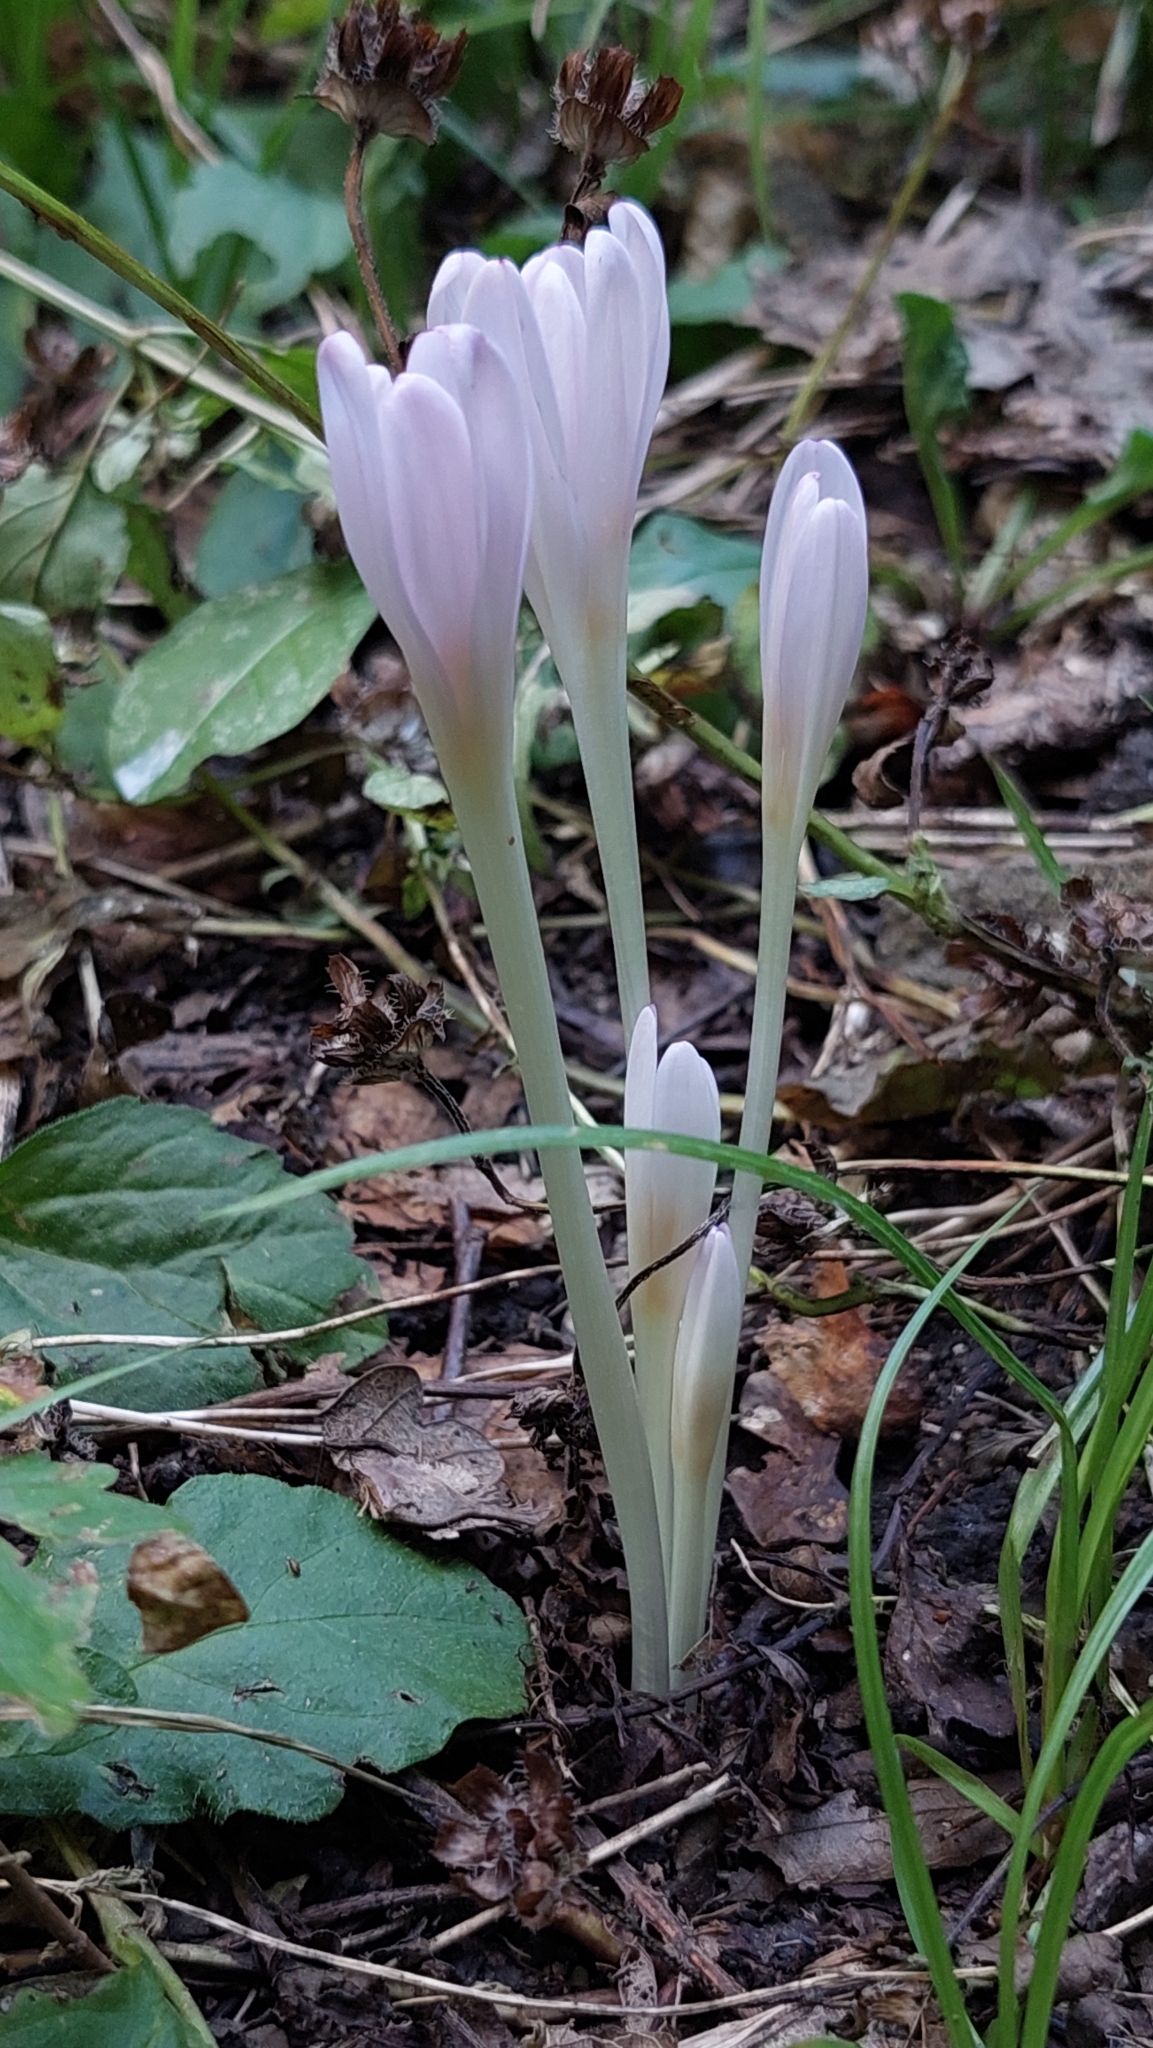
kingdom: Plantae
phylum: Tracheophyta
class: Liliopsida
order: Liliales
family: Colchicaceae
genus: Colchicum
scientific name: Colchicum umbrosum
